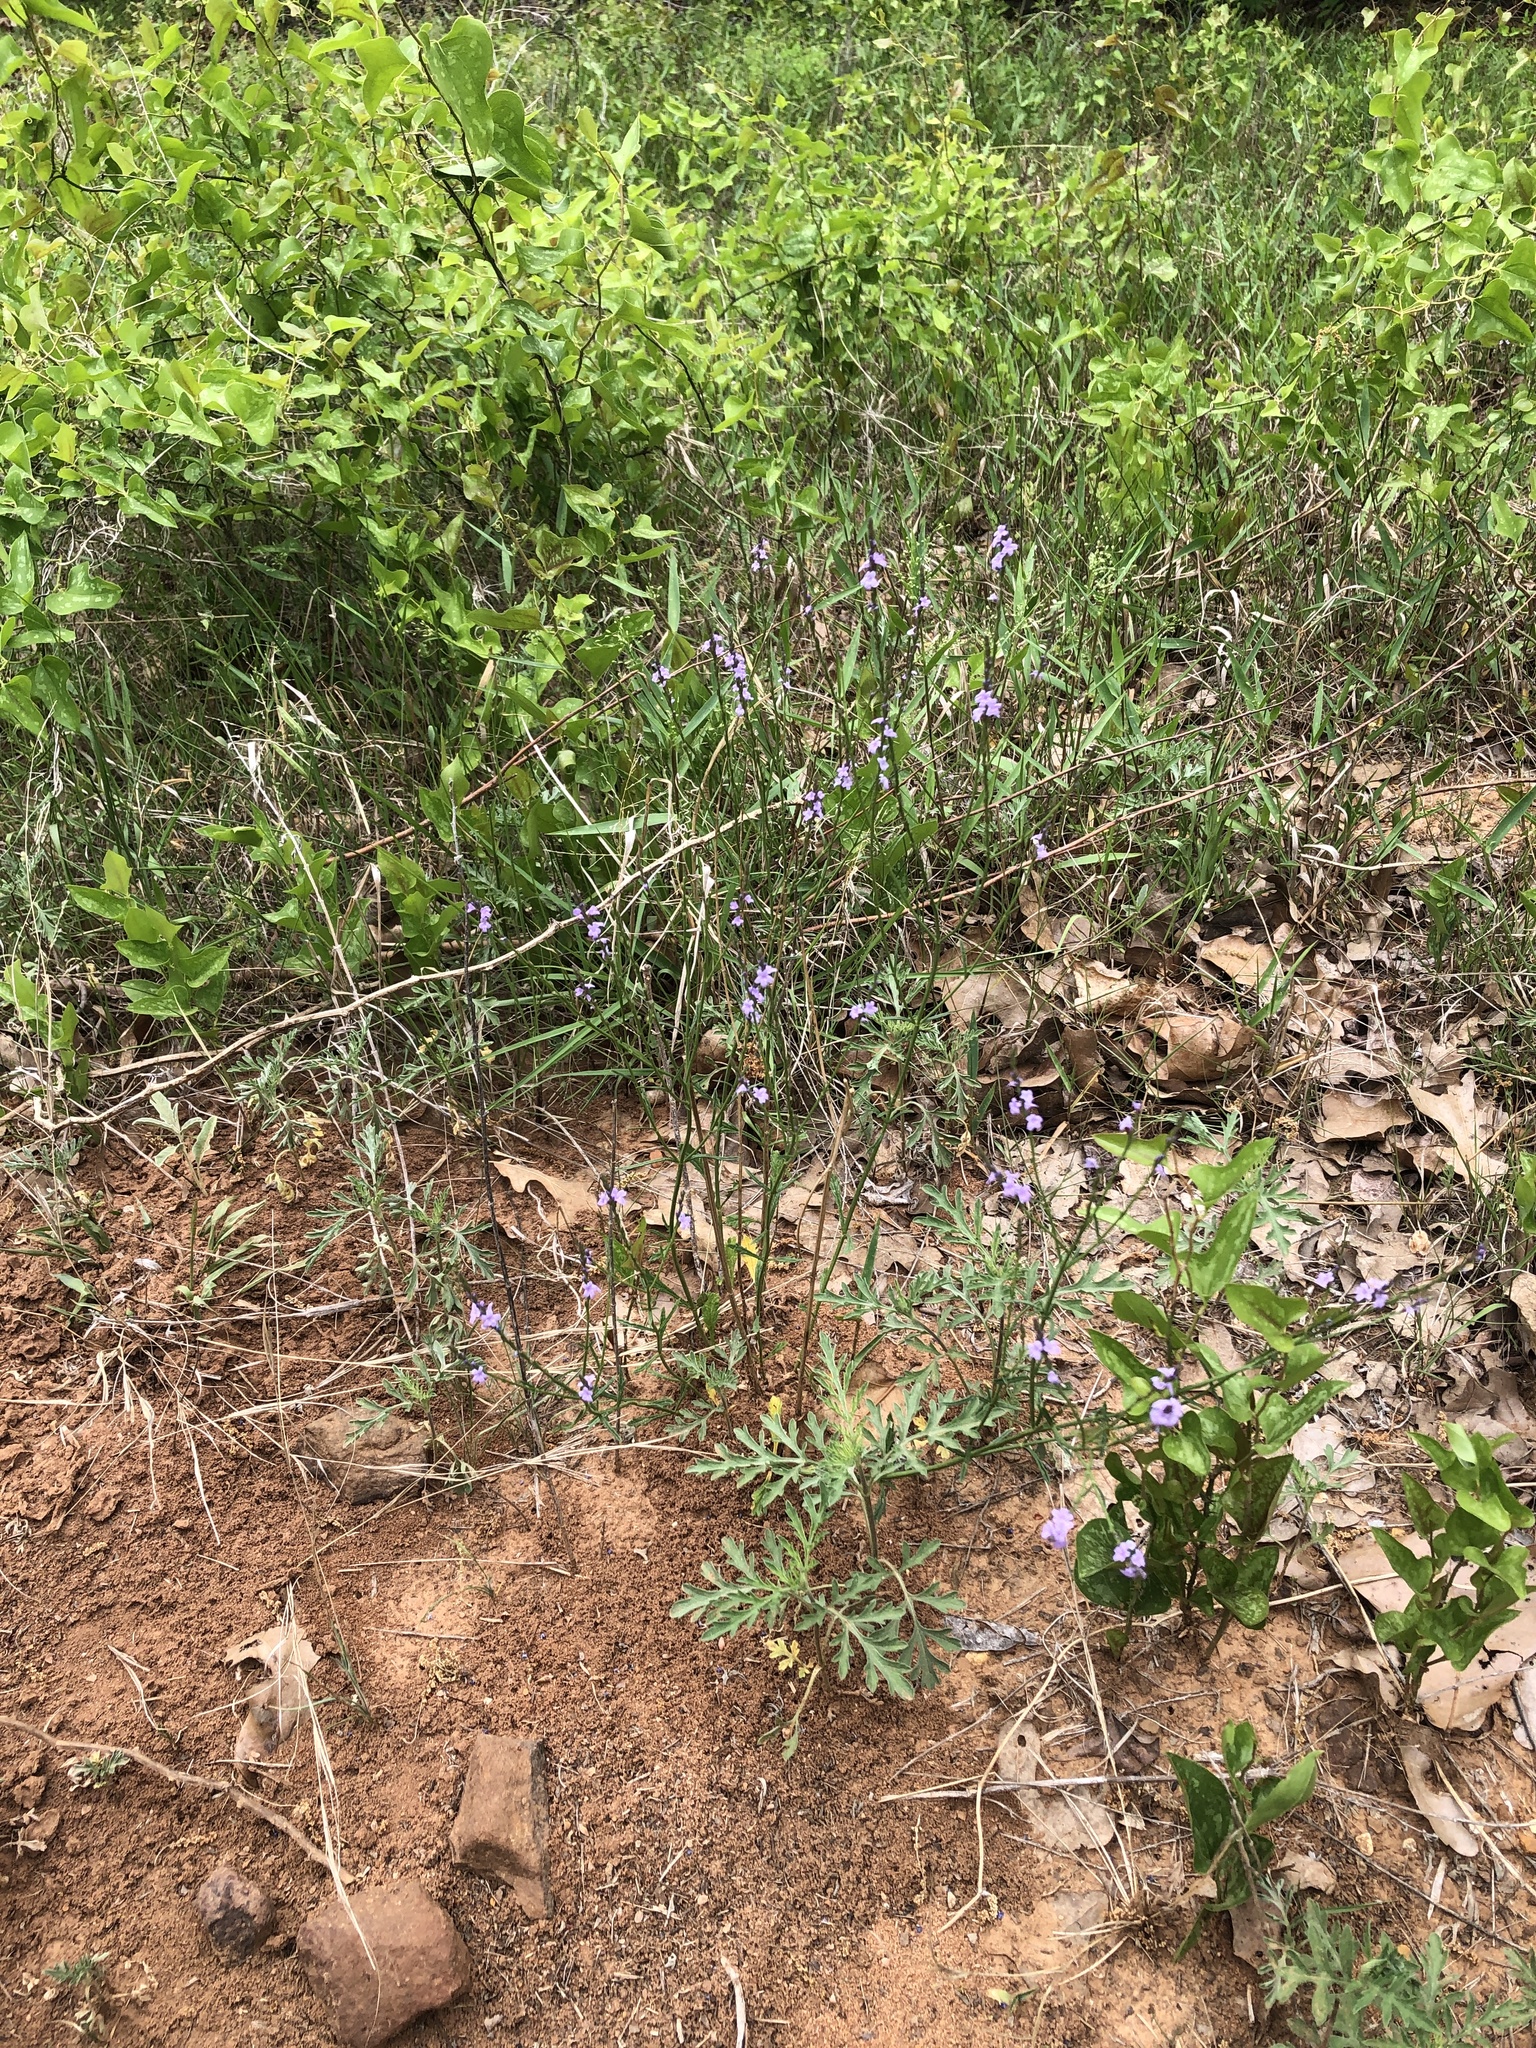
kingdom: Plantae
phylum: Tracheophyta
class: Magnoliopsida
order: Lamiales
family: Verbenaceae
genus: Verbena
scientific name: Verbena halei
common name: Texas vervain
